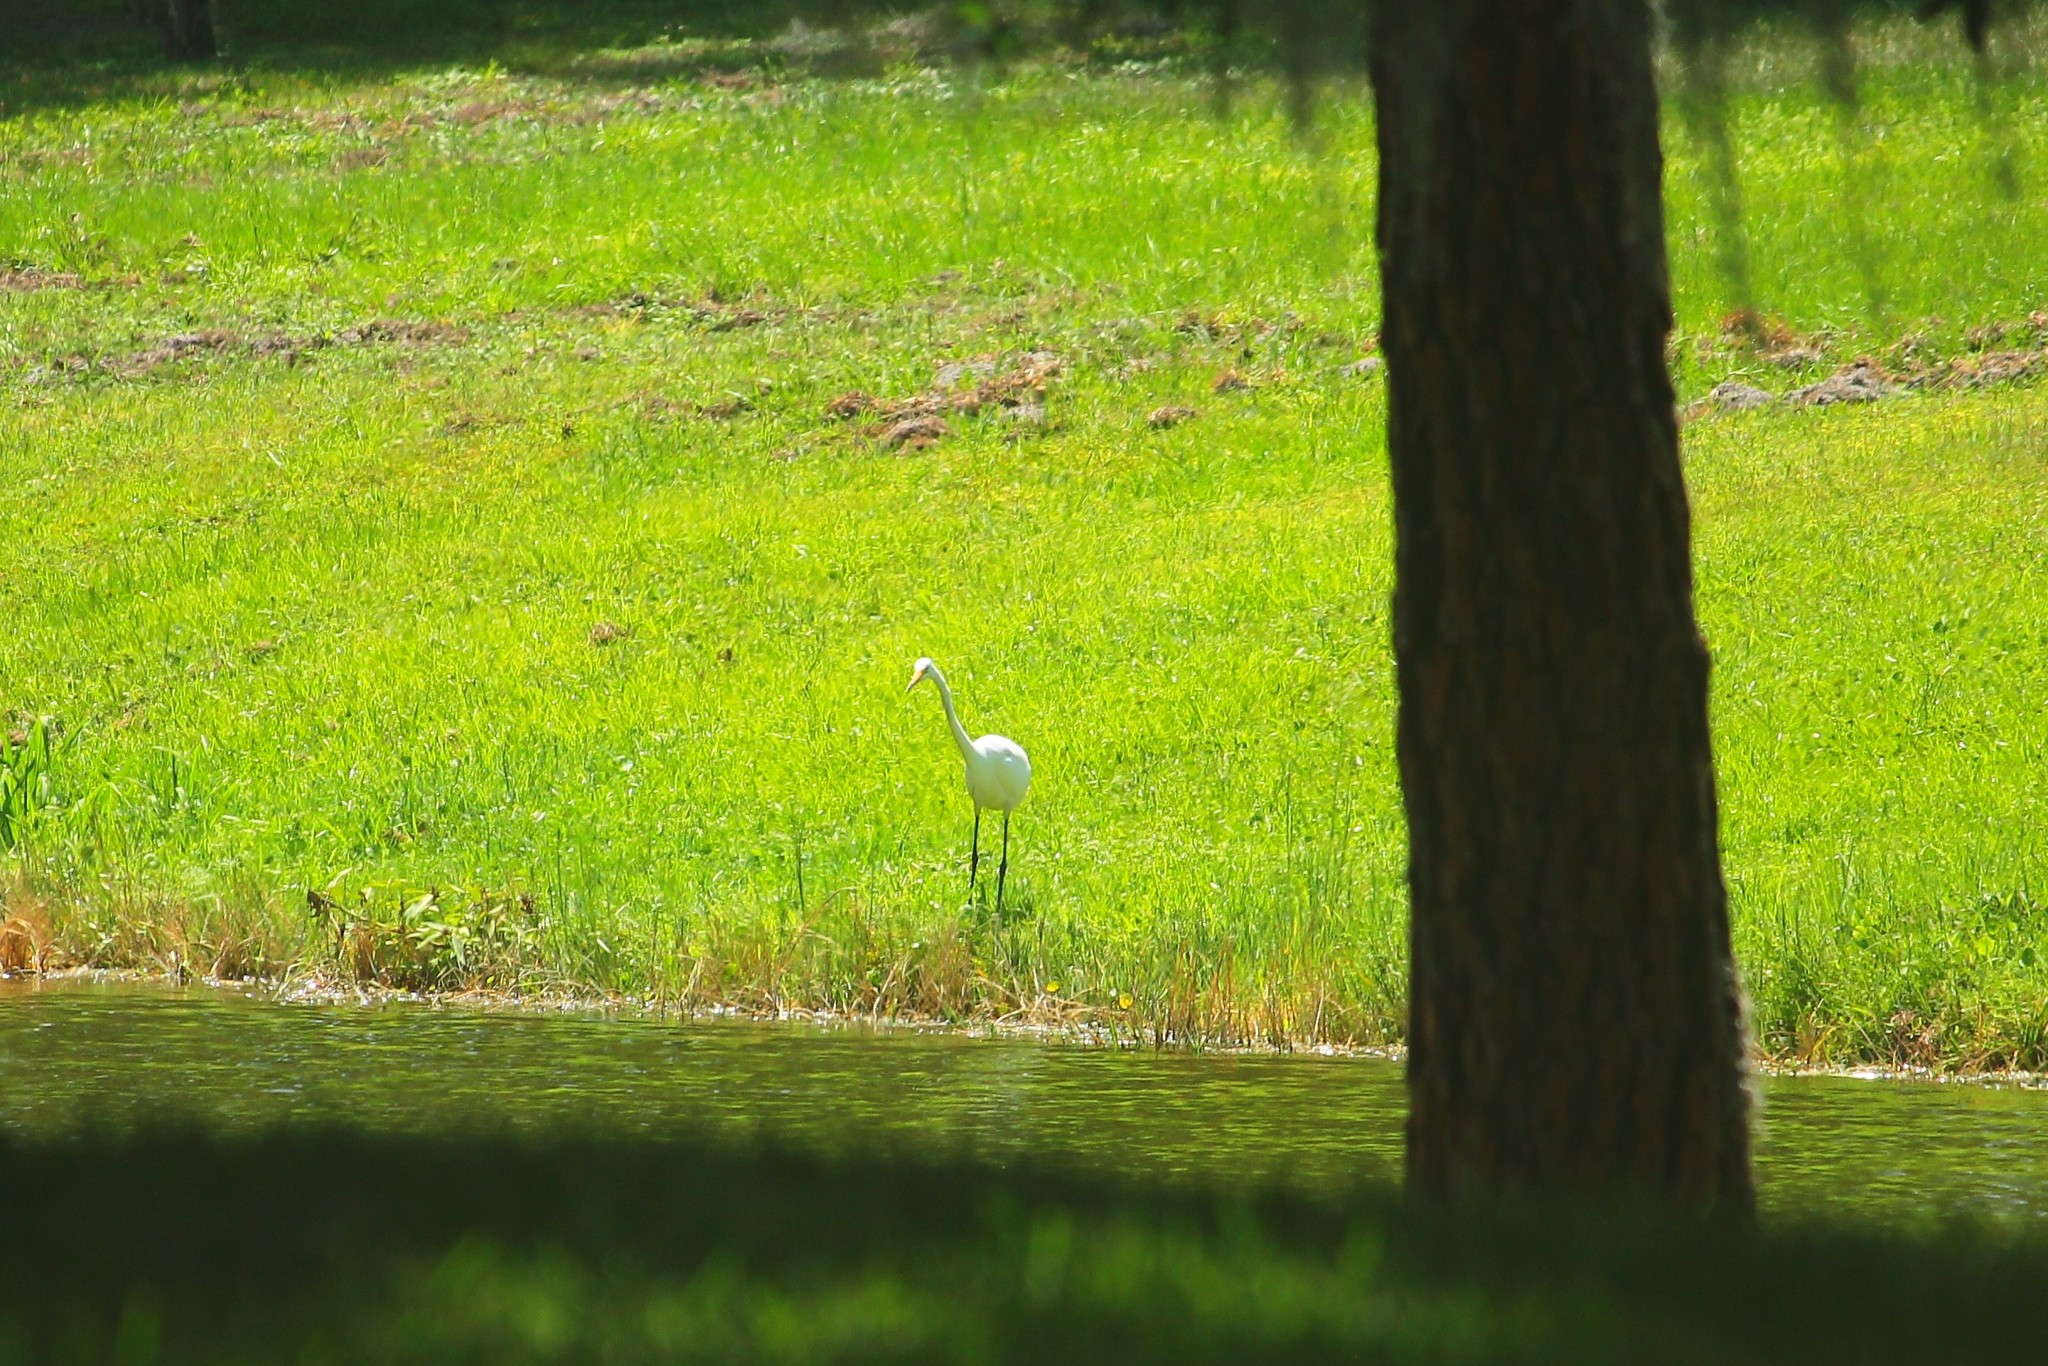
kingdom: Animalia
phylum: Chordata
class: Aves
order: Pelecaniformes
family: Ardeidae
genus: Ardea
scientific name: Ardea alba
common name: Great egret
